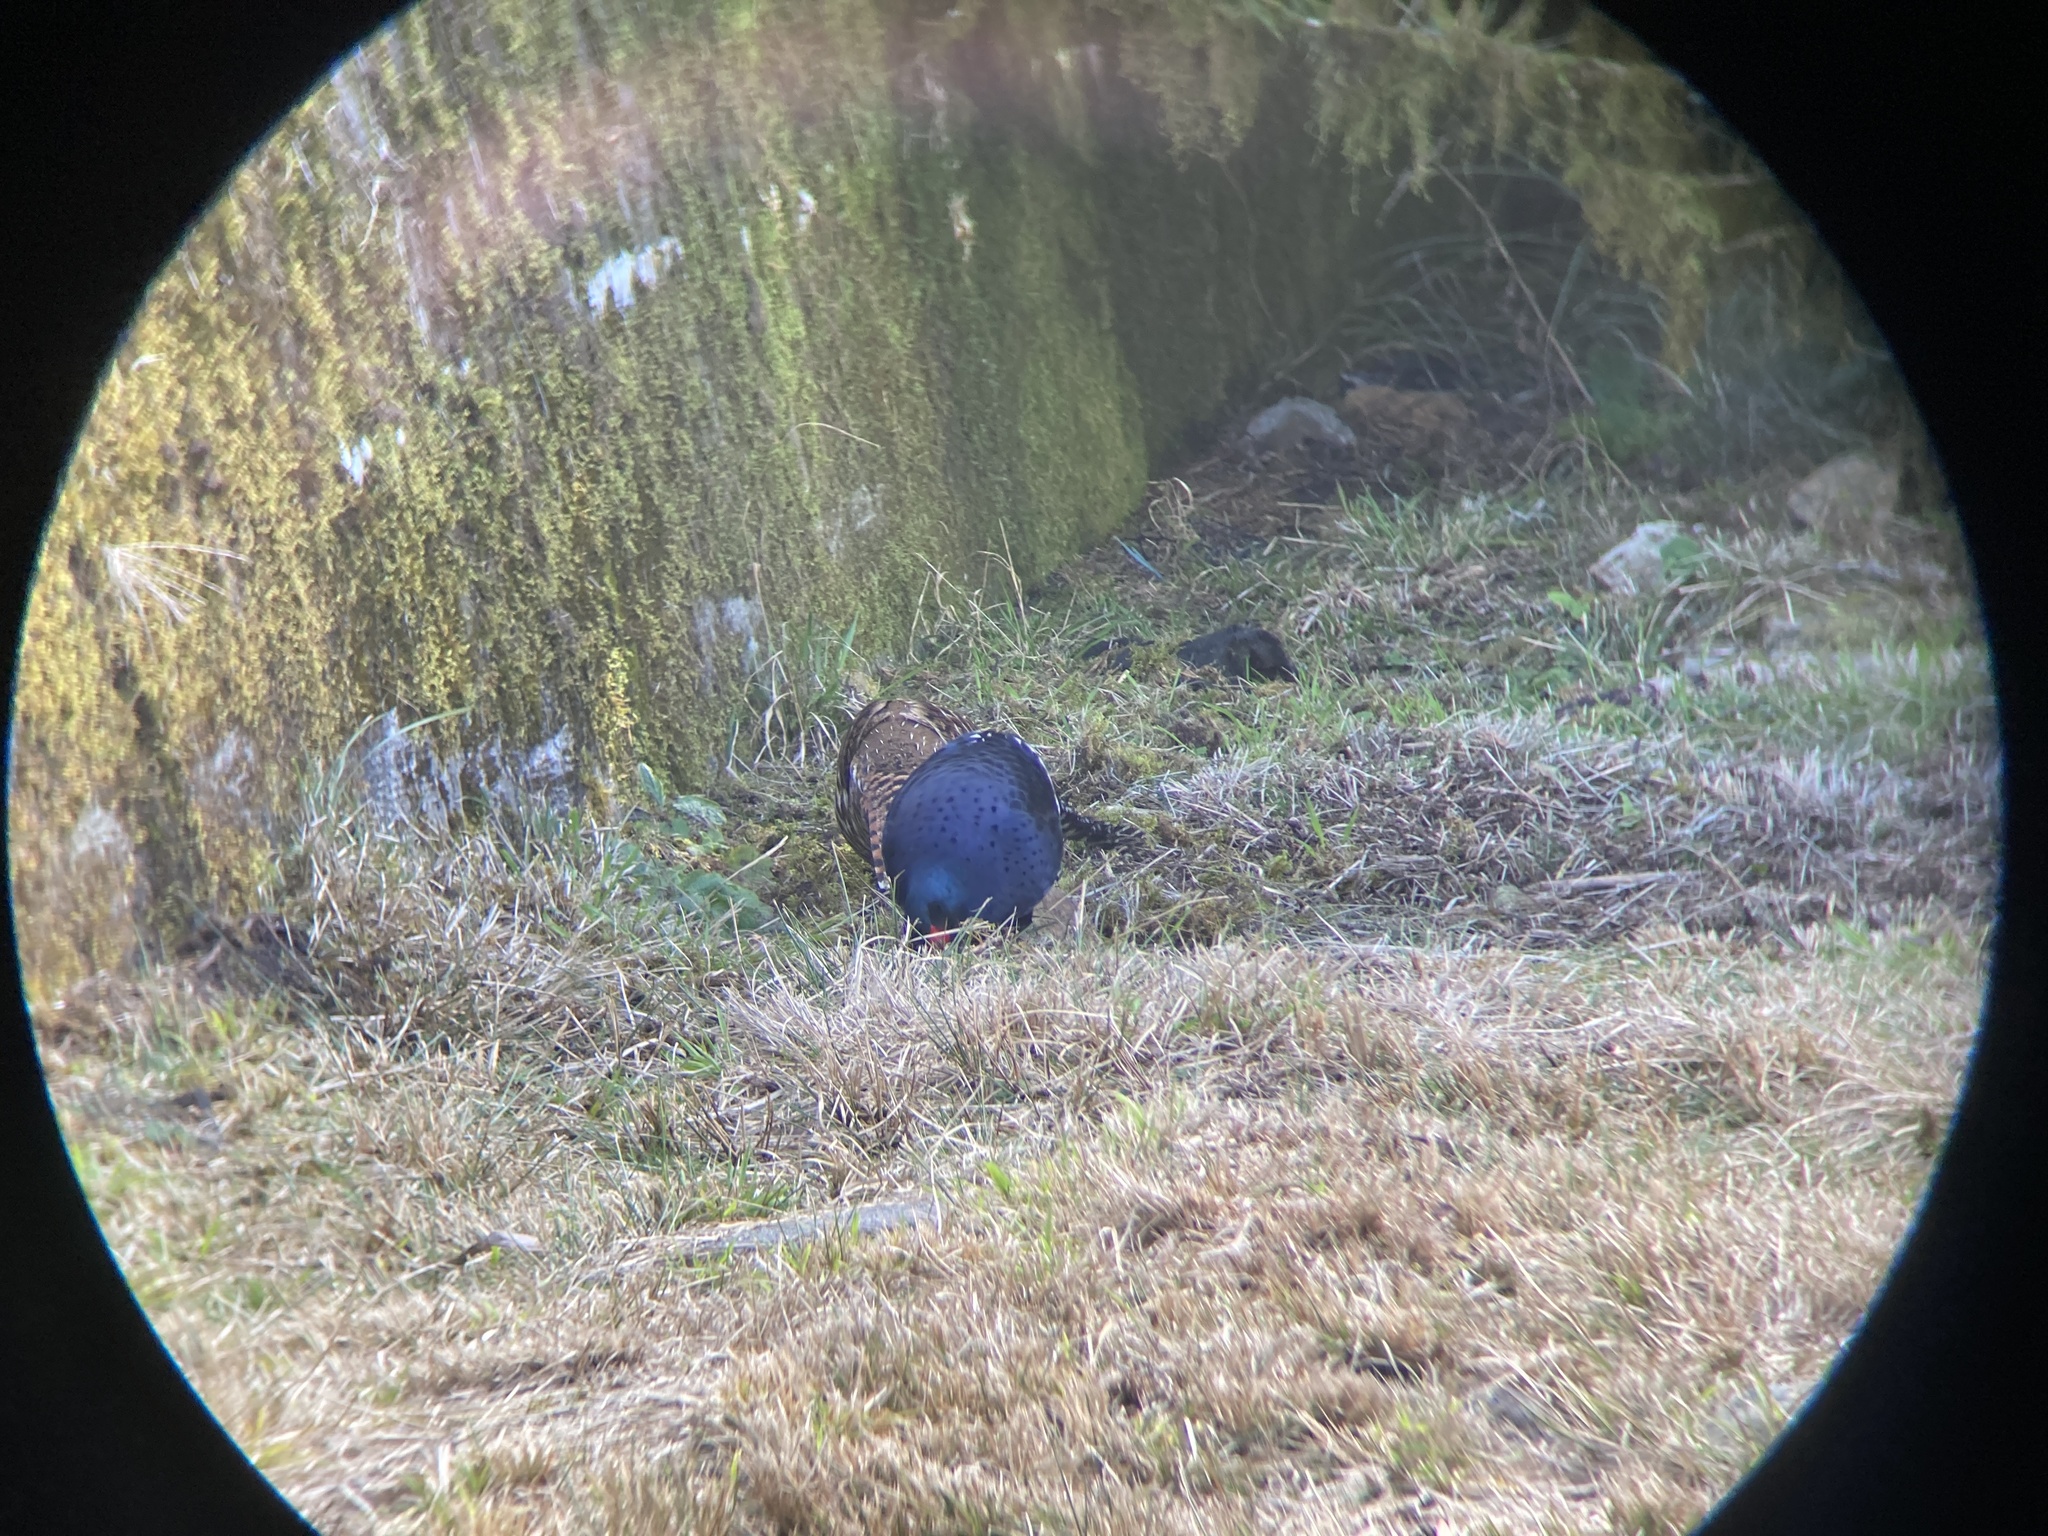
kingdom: Animalia
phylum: Chordata
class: Aves
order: Galliformes
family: Phasianidae
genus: Syrmaticus
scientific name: Syrmaticus mikado
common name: Mikado pheasant
